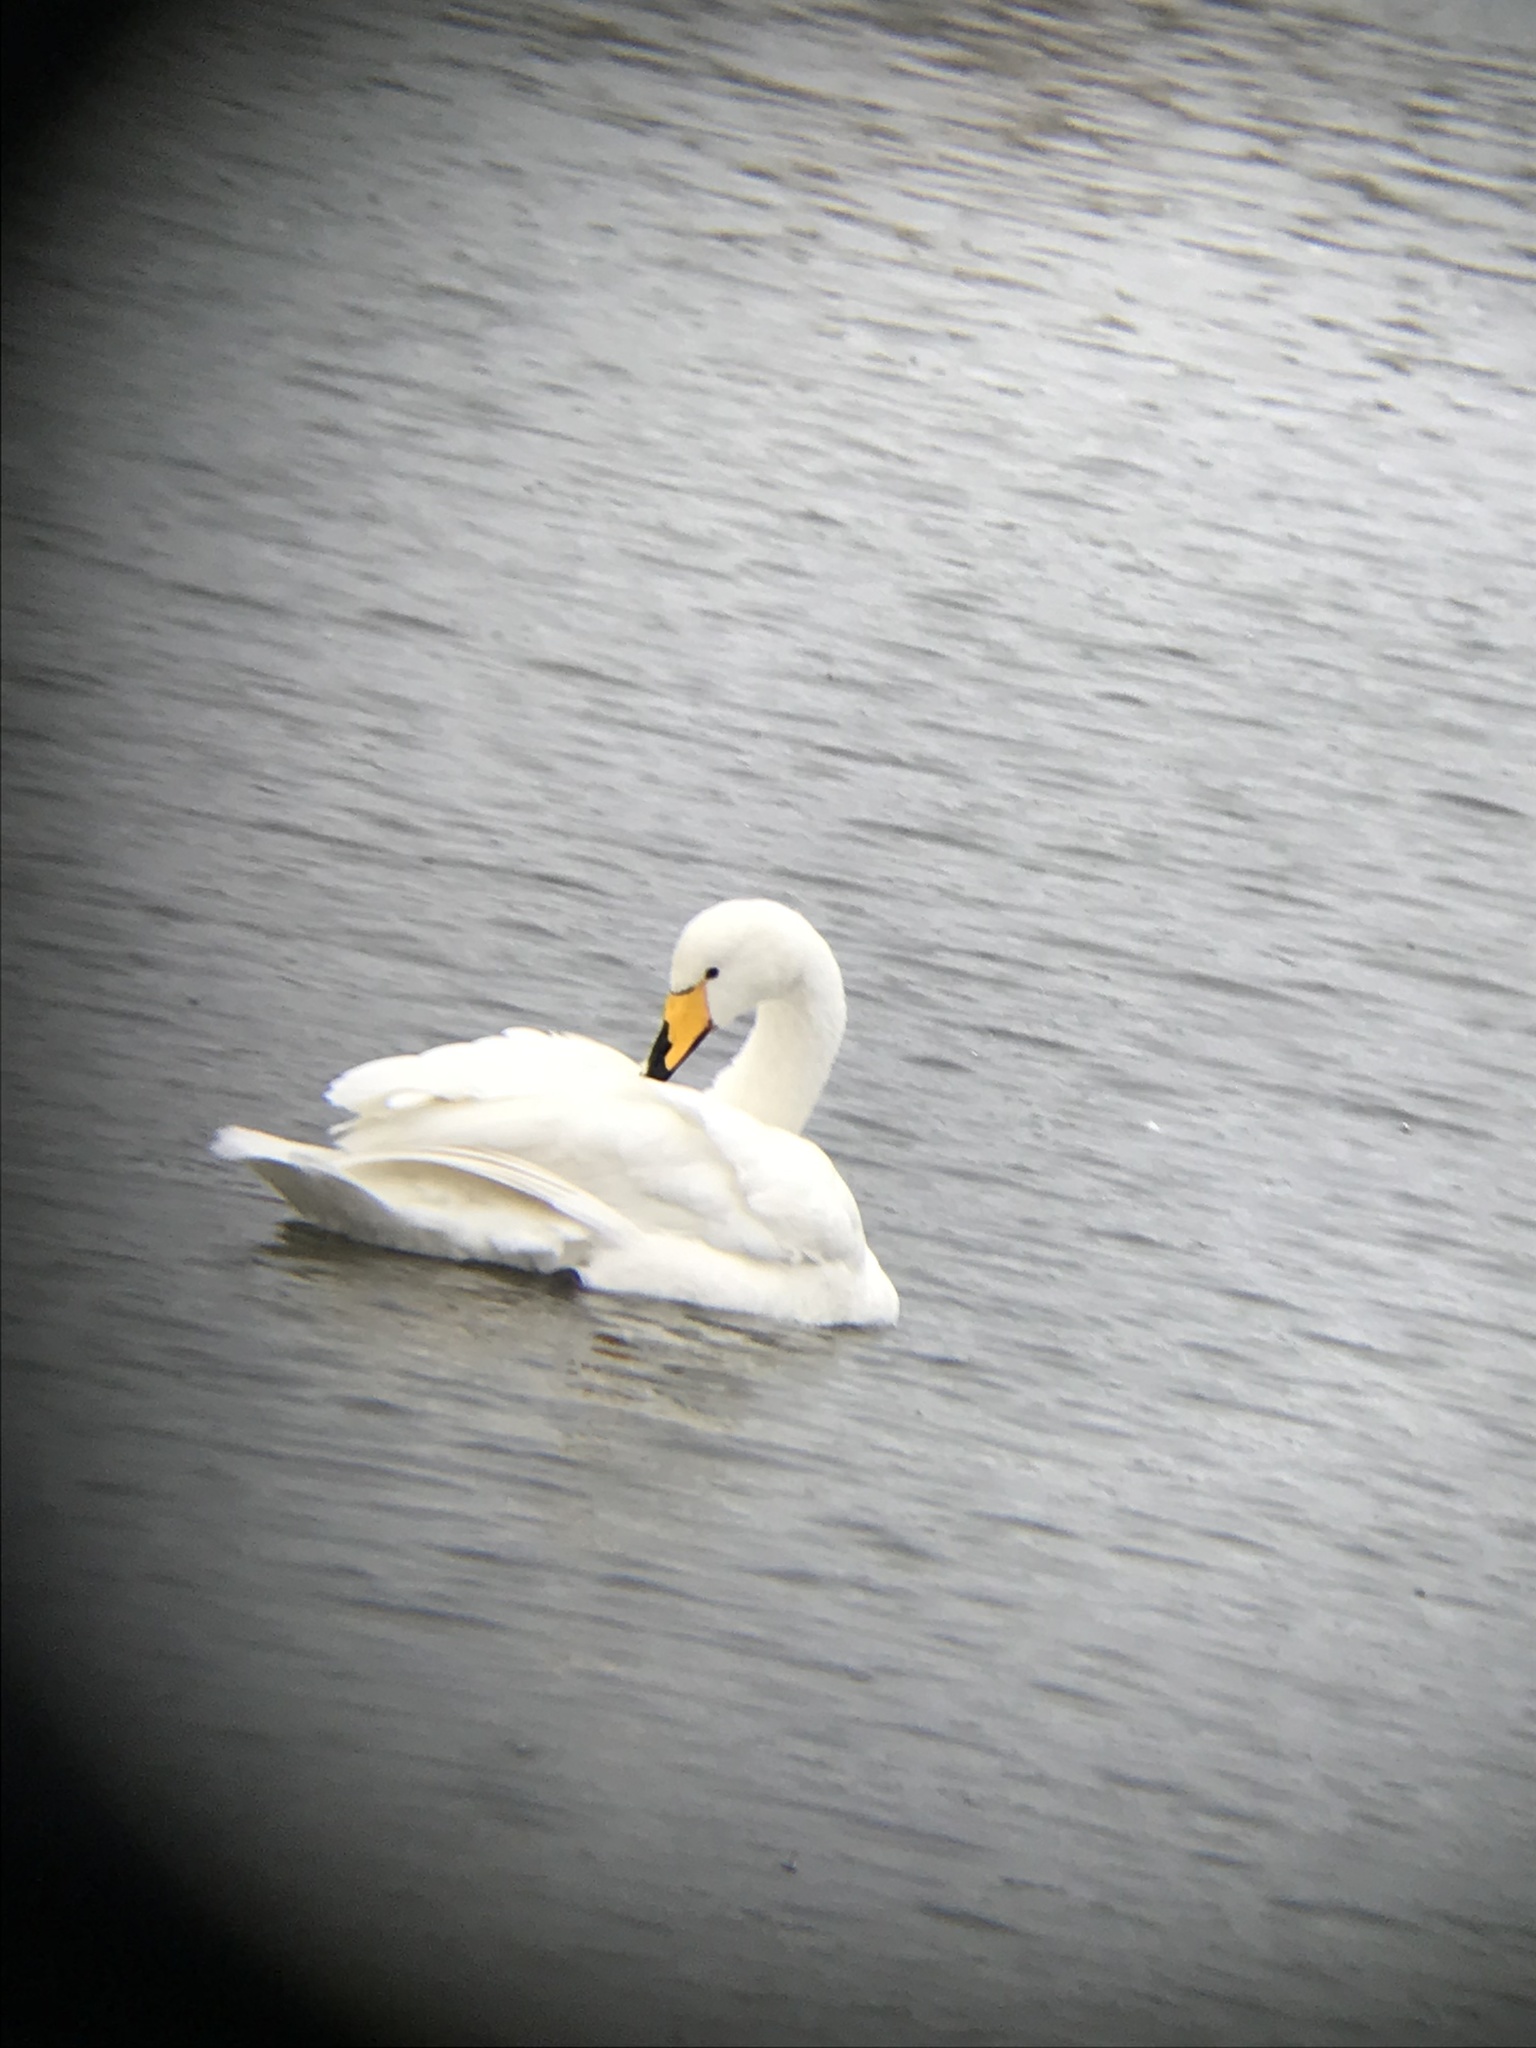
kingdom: Animalia
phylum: Chordata
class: Aves
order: Anseriformes
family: Anatidae
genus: Cygnus
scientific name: Cygnus cygnus
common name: Whooper swan
